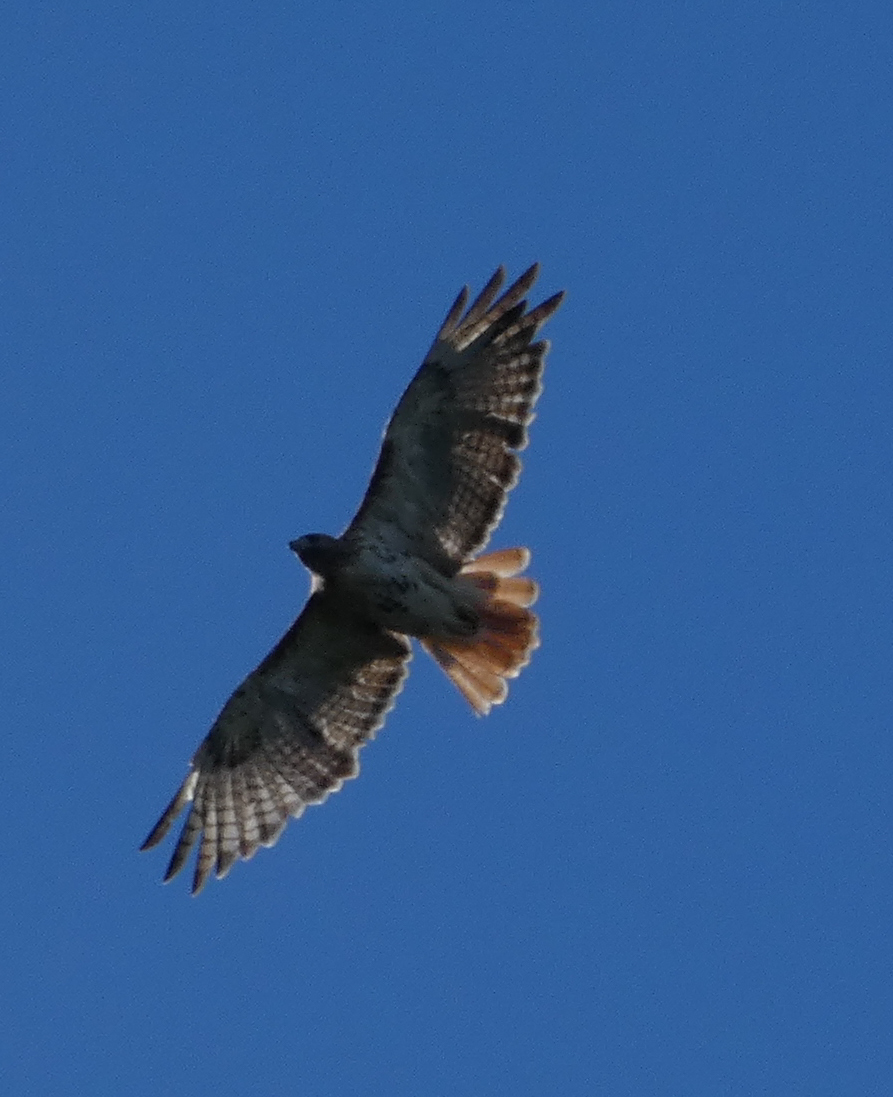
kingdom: Animalia
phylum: Chordata
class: Aves
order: Accipitriformes
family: Accipitridae
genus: Buteo
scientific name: Buteo jamaicensis
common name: Red-tailed hawk
